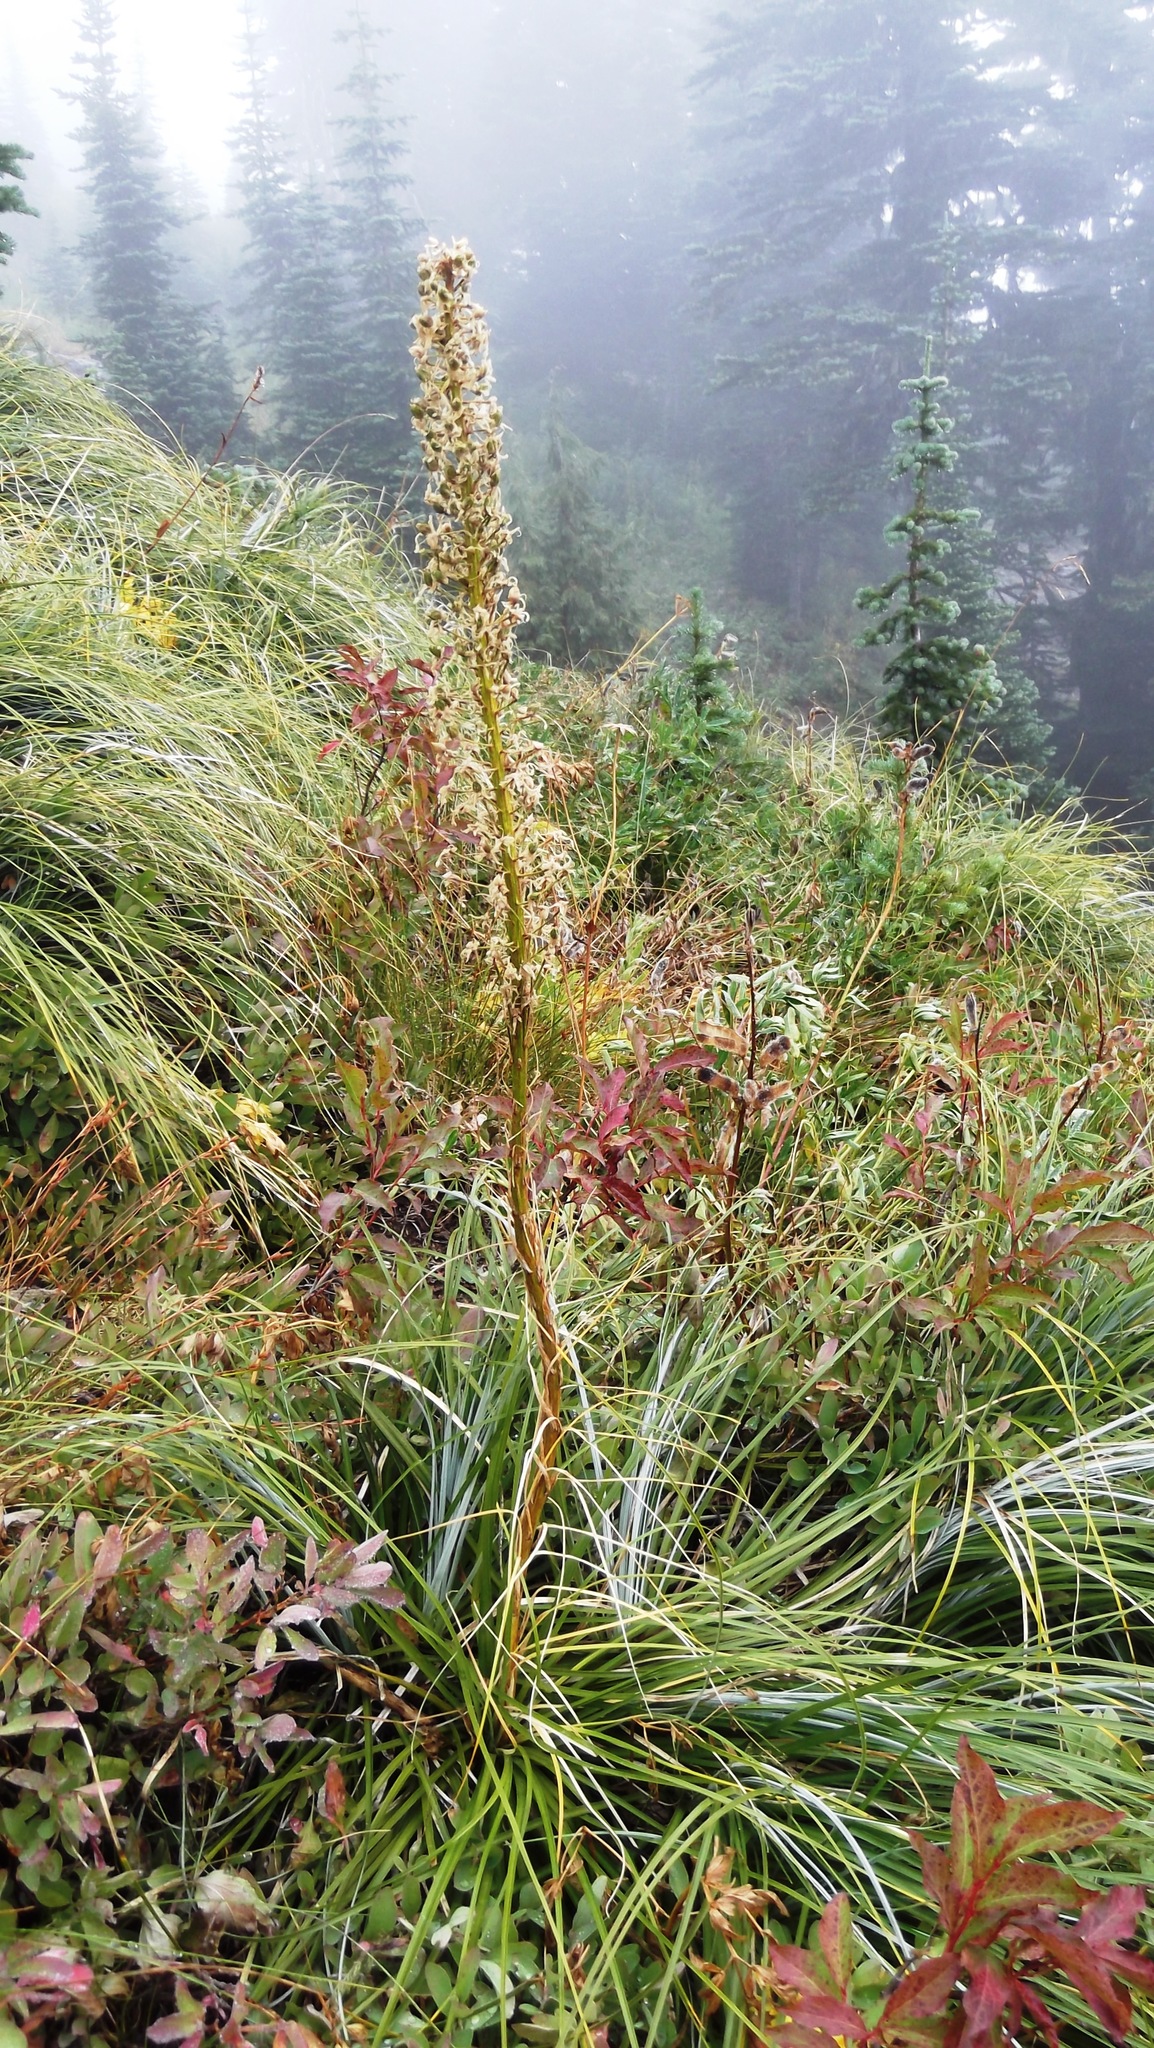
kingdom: Plantae
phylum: Tracheophyta
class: Liliopsida
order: Liliales
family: Melanthiaceae
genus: Xerophyllum
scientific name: Xerophyllum tenax
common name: Bear-grass
